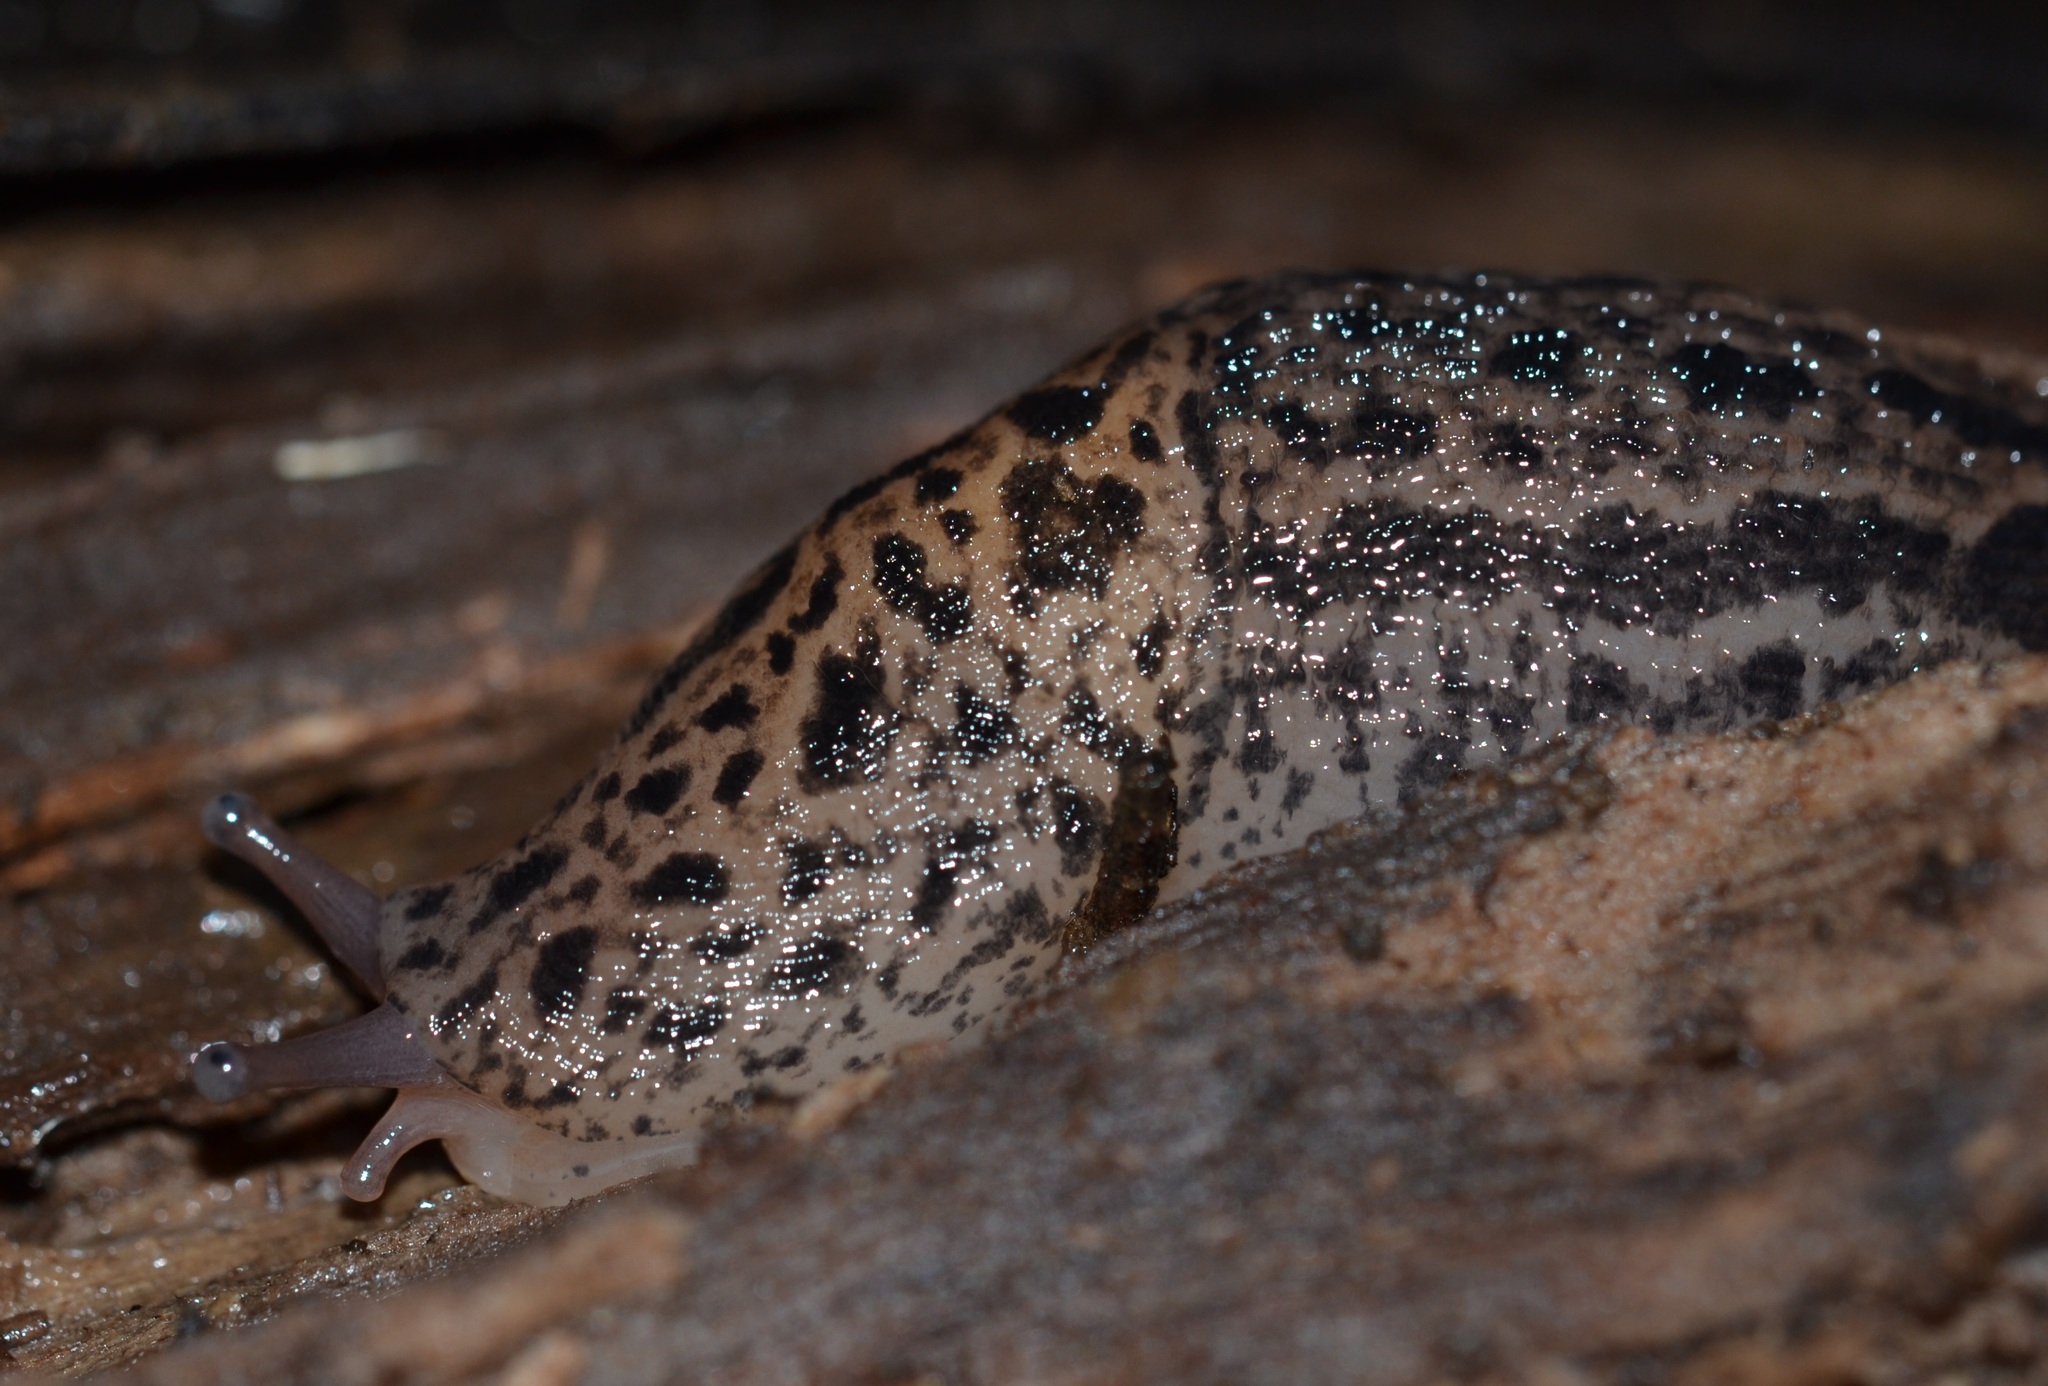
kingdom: Animalia
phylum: Mollusca
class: Gastropoda
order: Stylommatophora
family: Limacidae
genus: Limax
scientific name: Limax maximus
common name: Great grey slug
